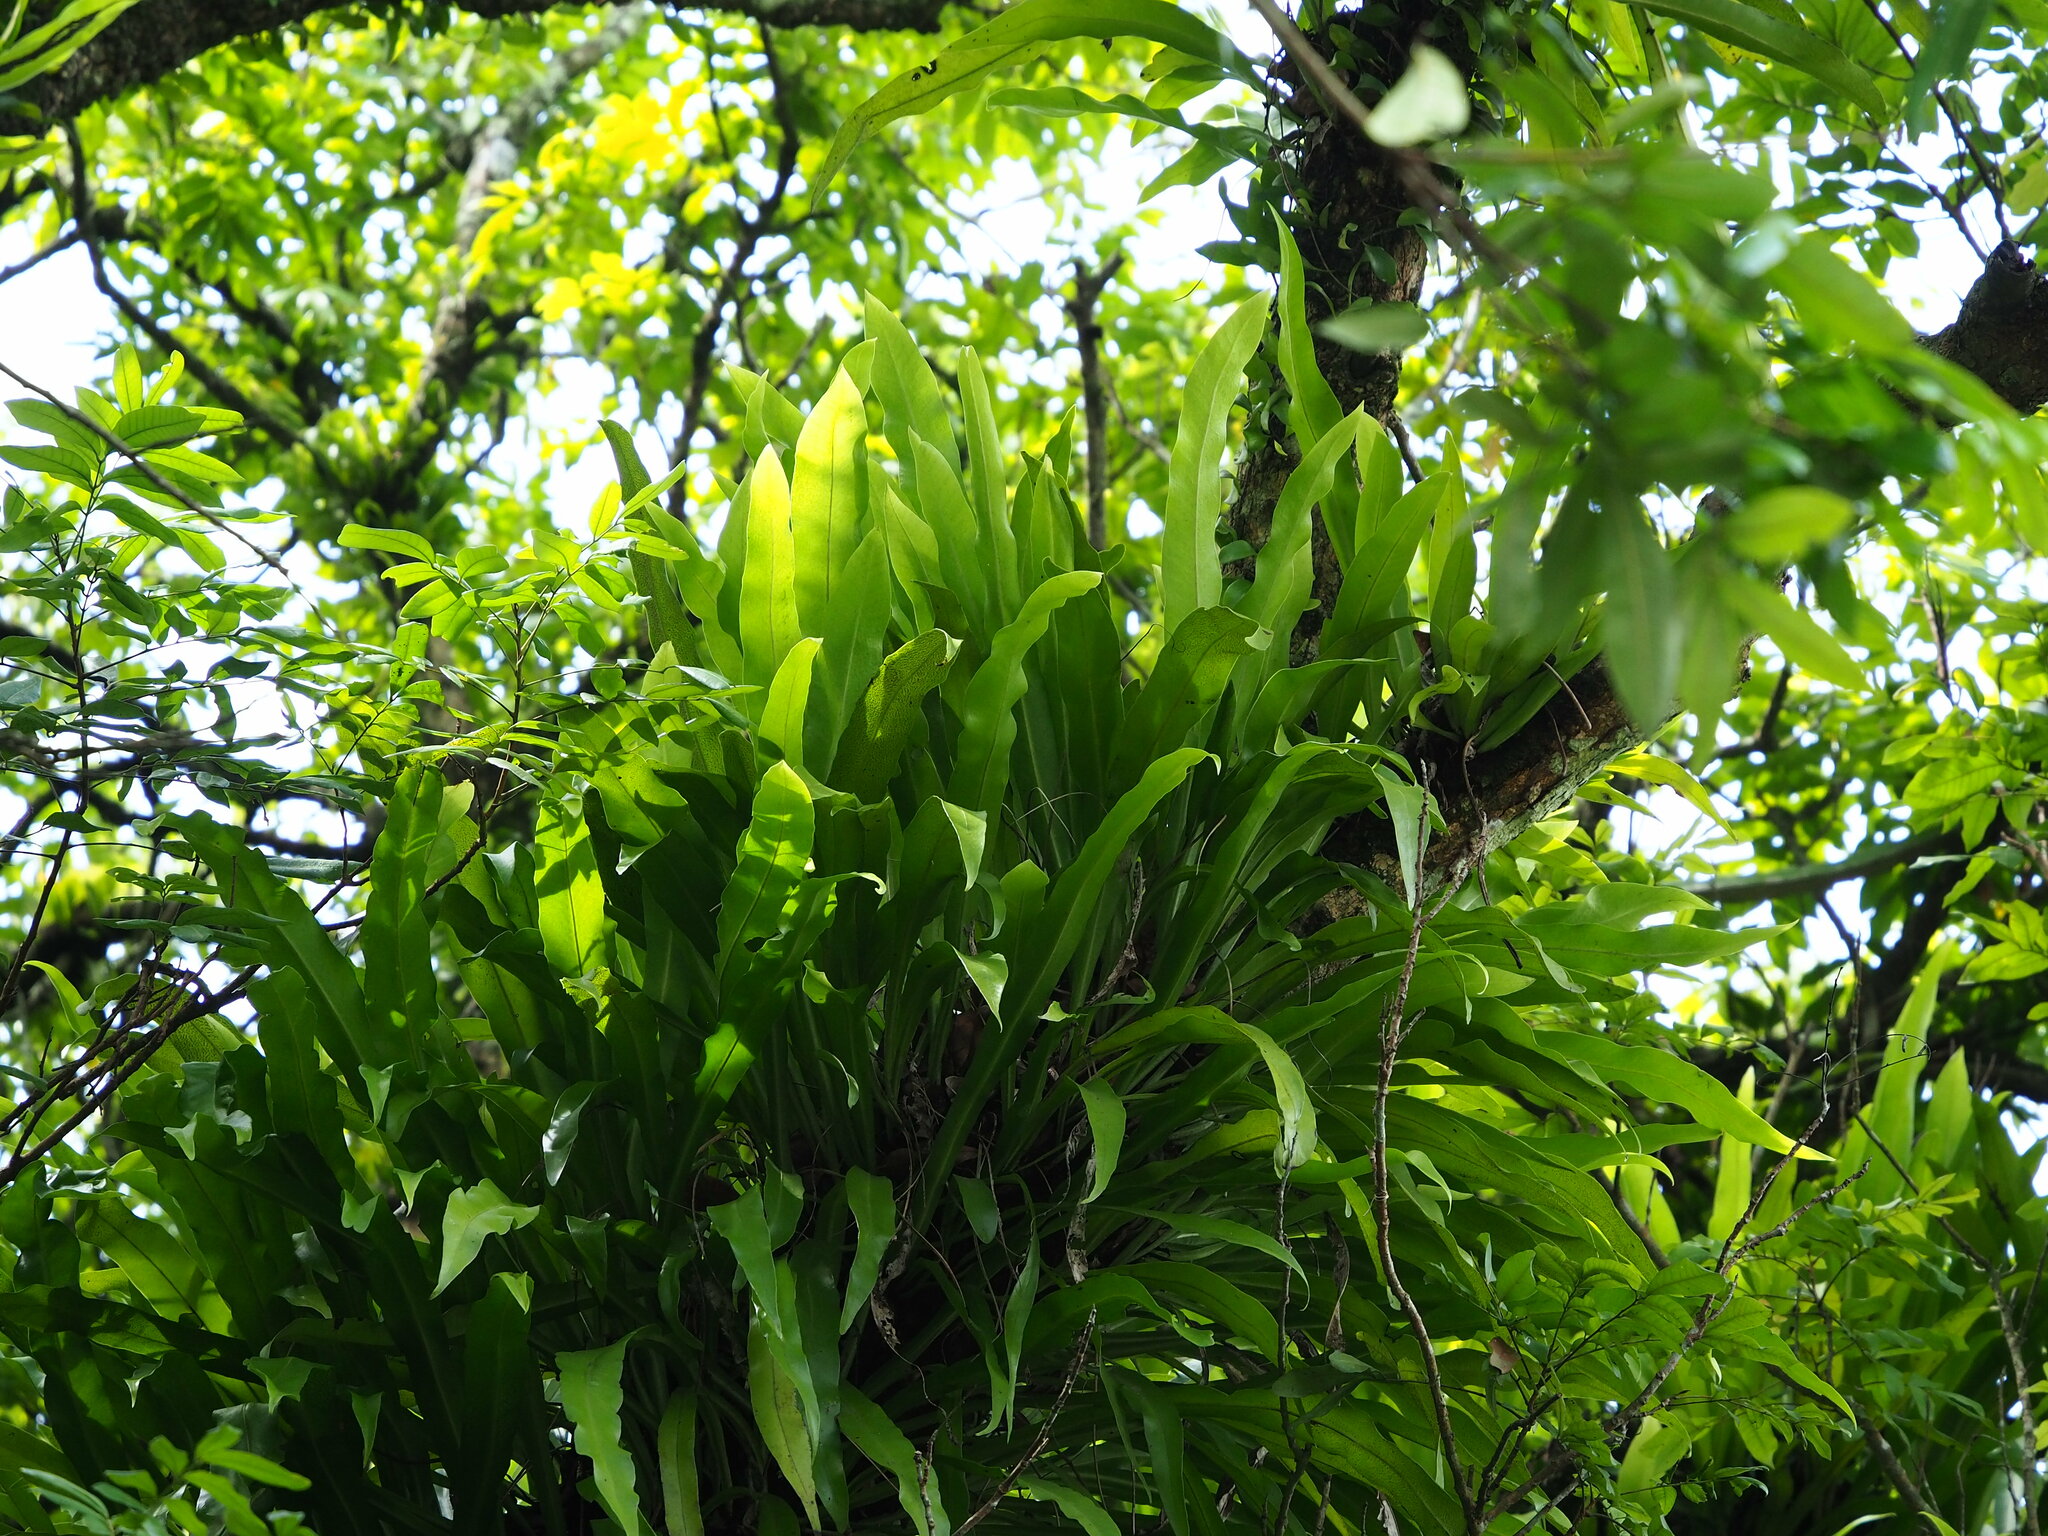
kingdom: Plantae
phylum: Tracheophyta
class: Polypodiopsida
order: Polypodiales
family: Polypodiaceae
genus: Microsorum
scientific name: Microsorum punctatum
